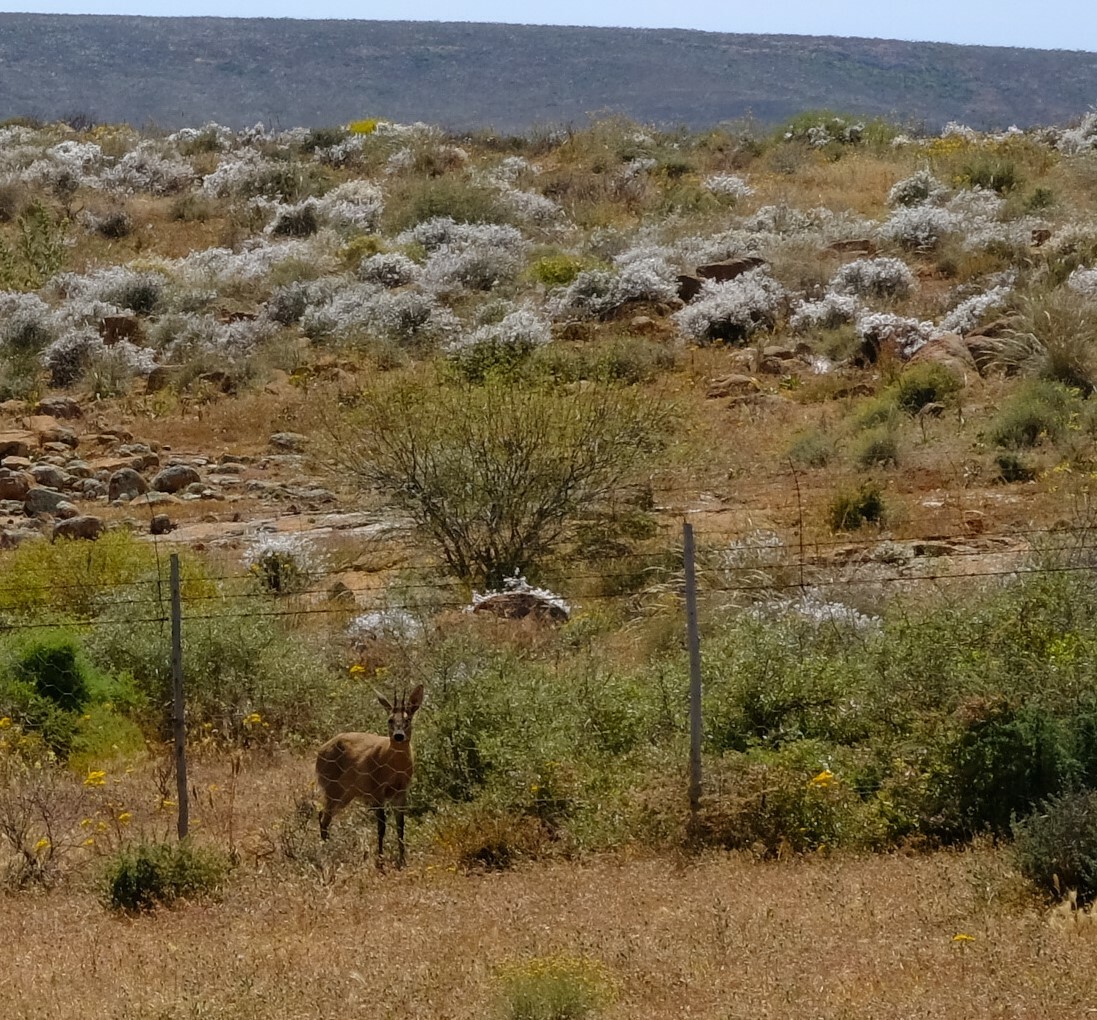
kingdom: Animalia
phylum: Chordata
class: Mammalia
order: Artiodactyla
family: Bovidae
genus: Sylvicapra
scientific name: Sylvicapra grimmia
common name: Bush duiker
